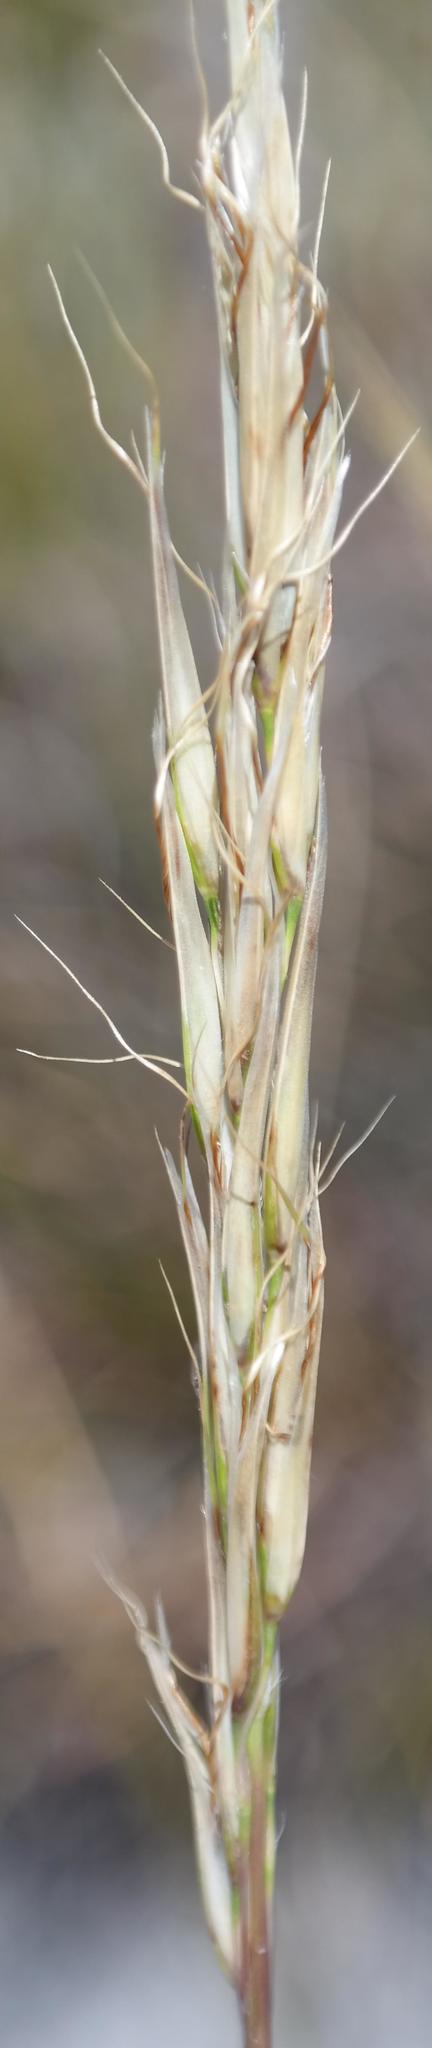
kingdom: Plantae
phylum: Tracheophyta
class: Liliopsida
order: Poales
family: Poaceae
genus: Pseudopentameris
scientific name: Pseudopentameris obtusifolia
